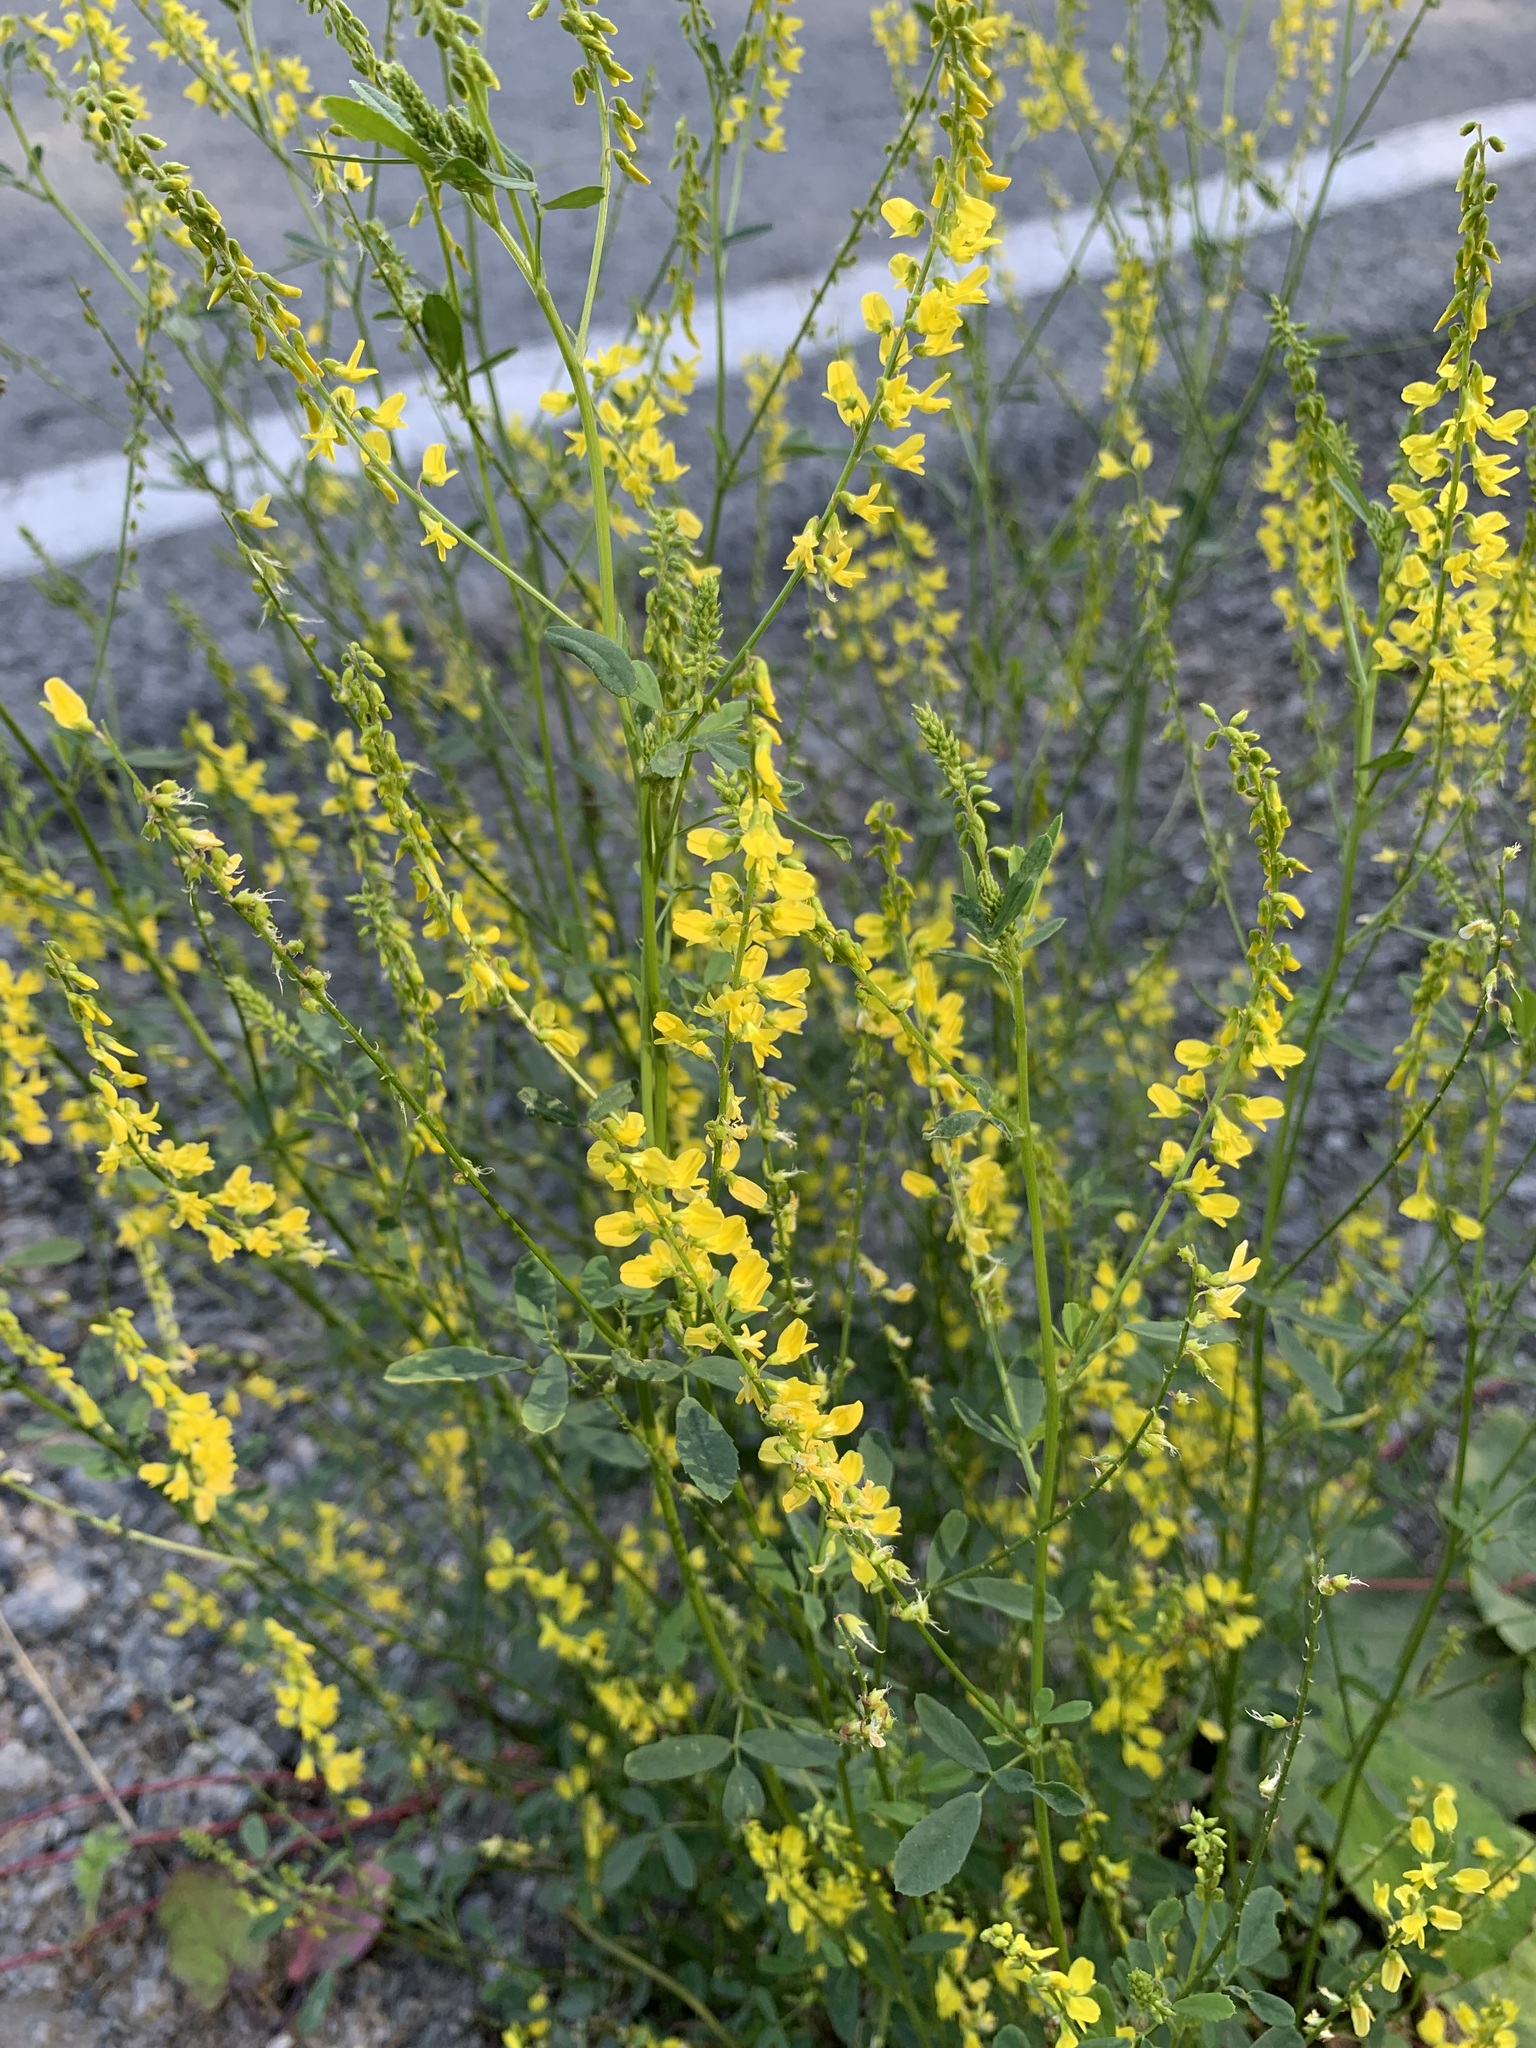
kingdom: Plantae
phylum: Tracheophyta
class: Magnoliopsida
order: Fabales
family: Fabaceae
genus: Melilotus
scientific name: Melilotus officinalis
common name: Sweetclover
